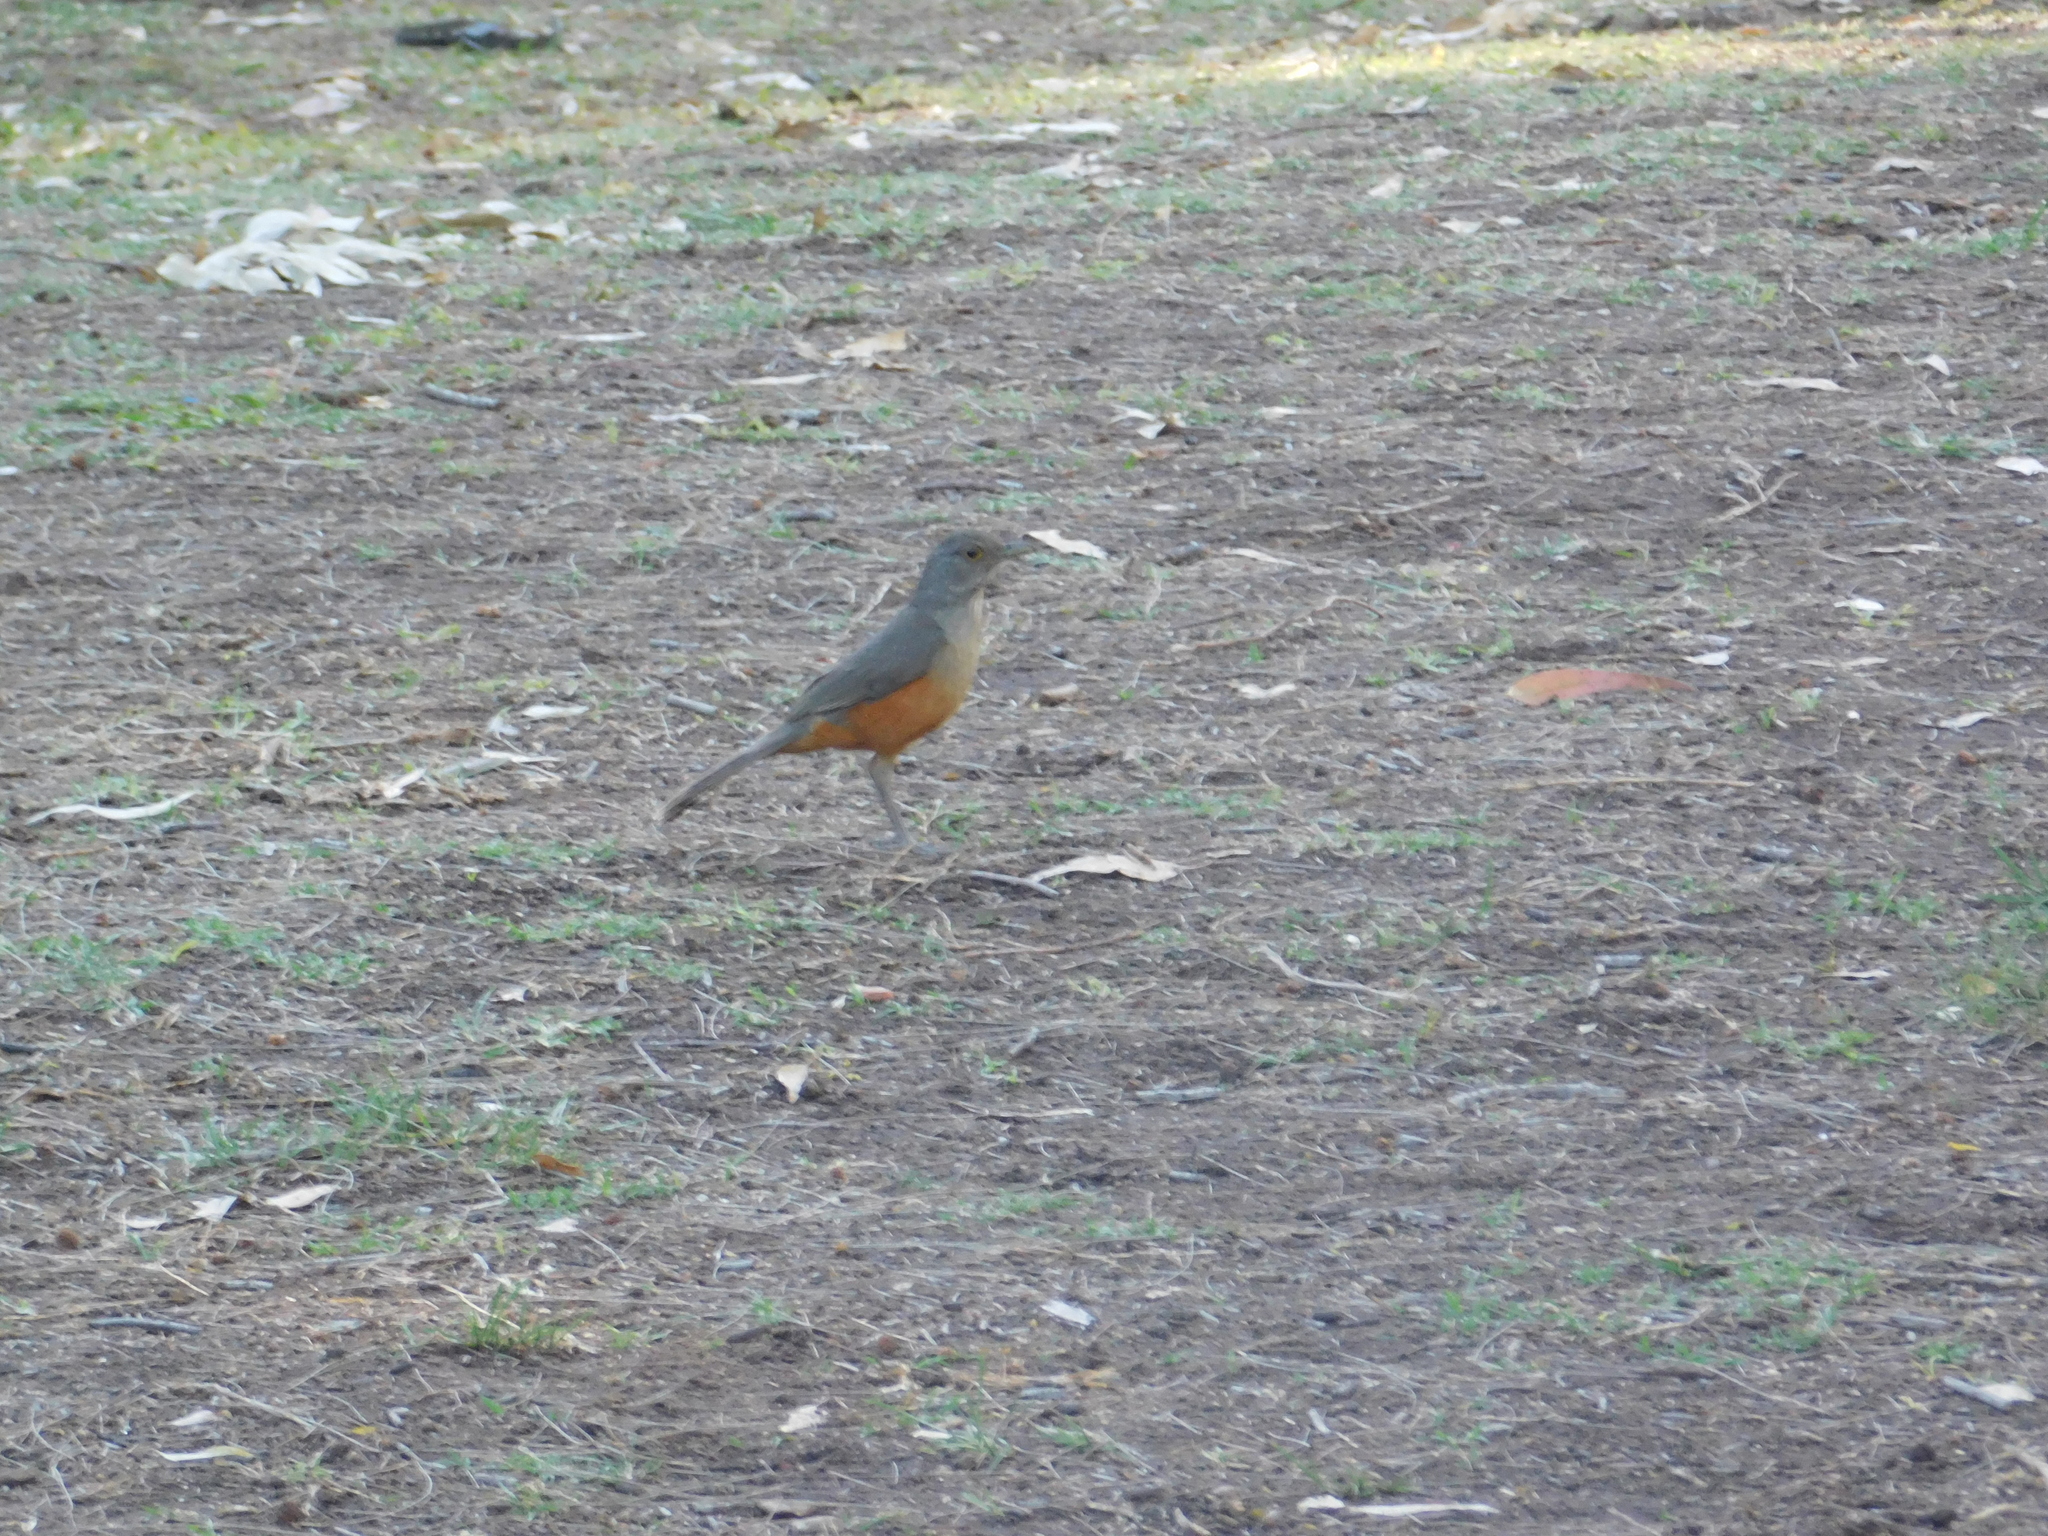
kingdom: Animalia
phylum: Chordata
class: Aves
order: Passeriformes
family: Turdidae
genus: Turdus
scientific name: Turdus rufiventris
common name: Rufous-bellied thrush
